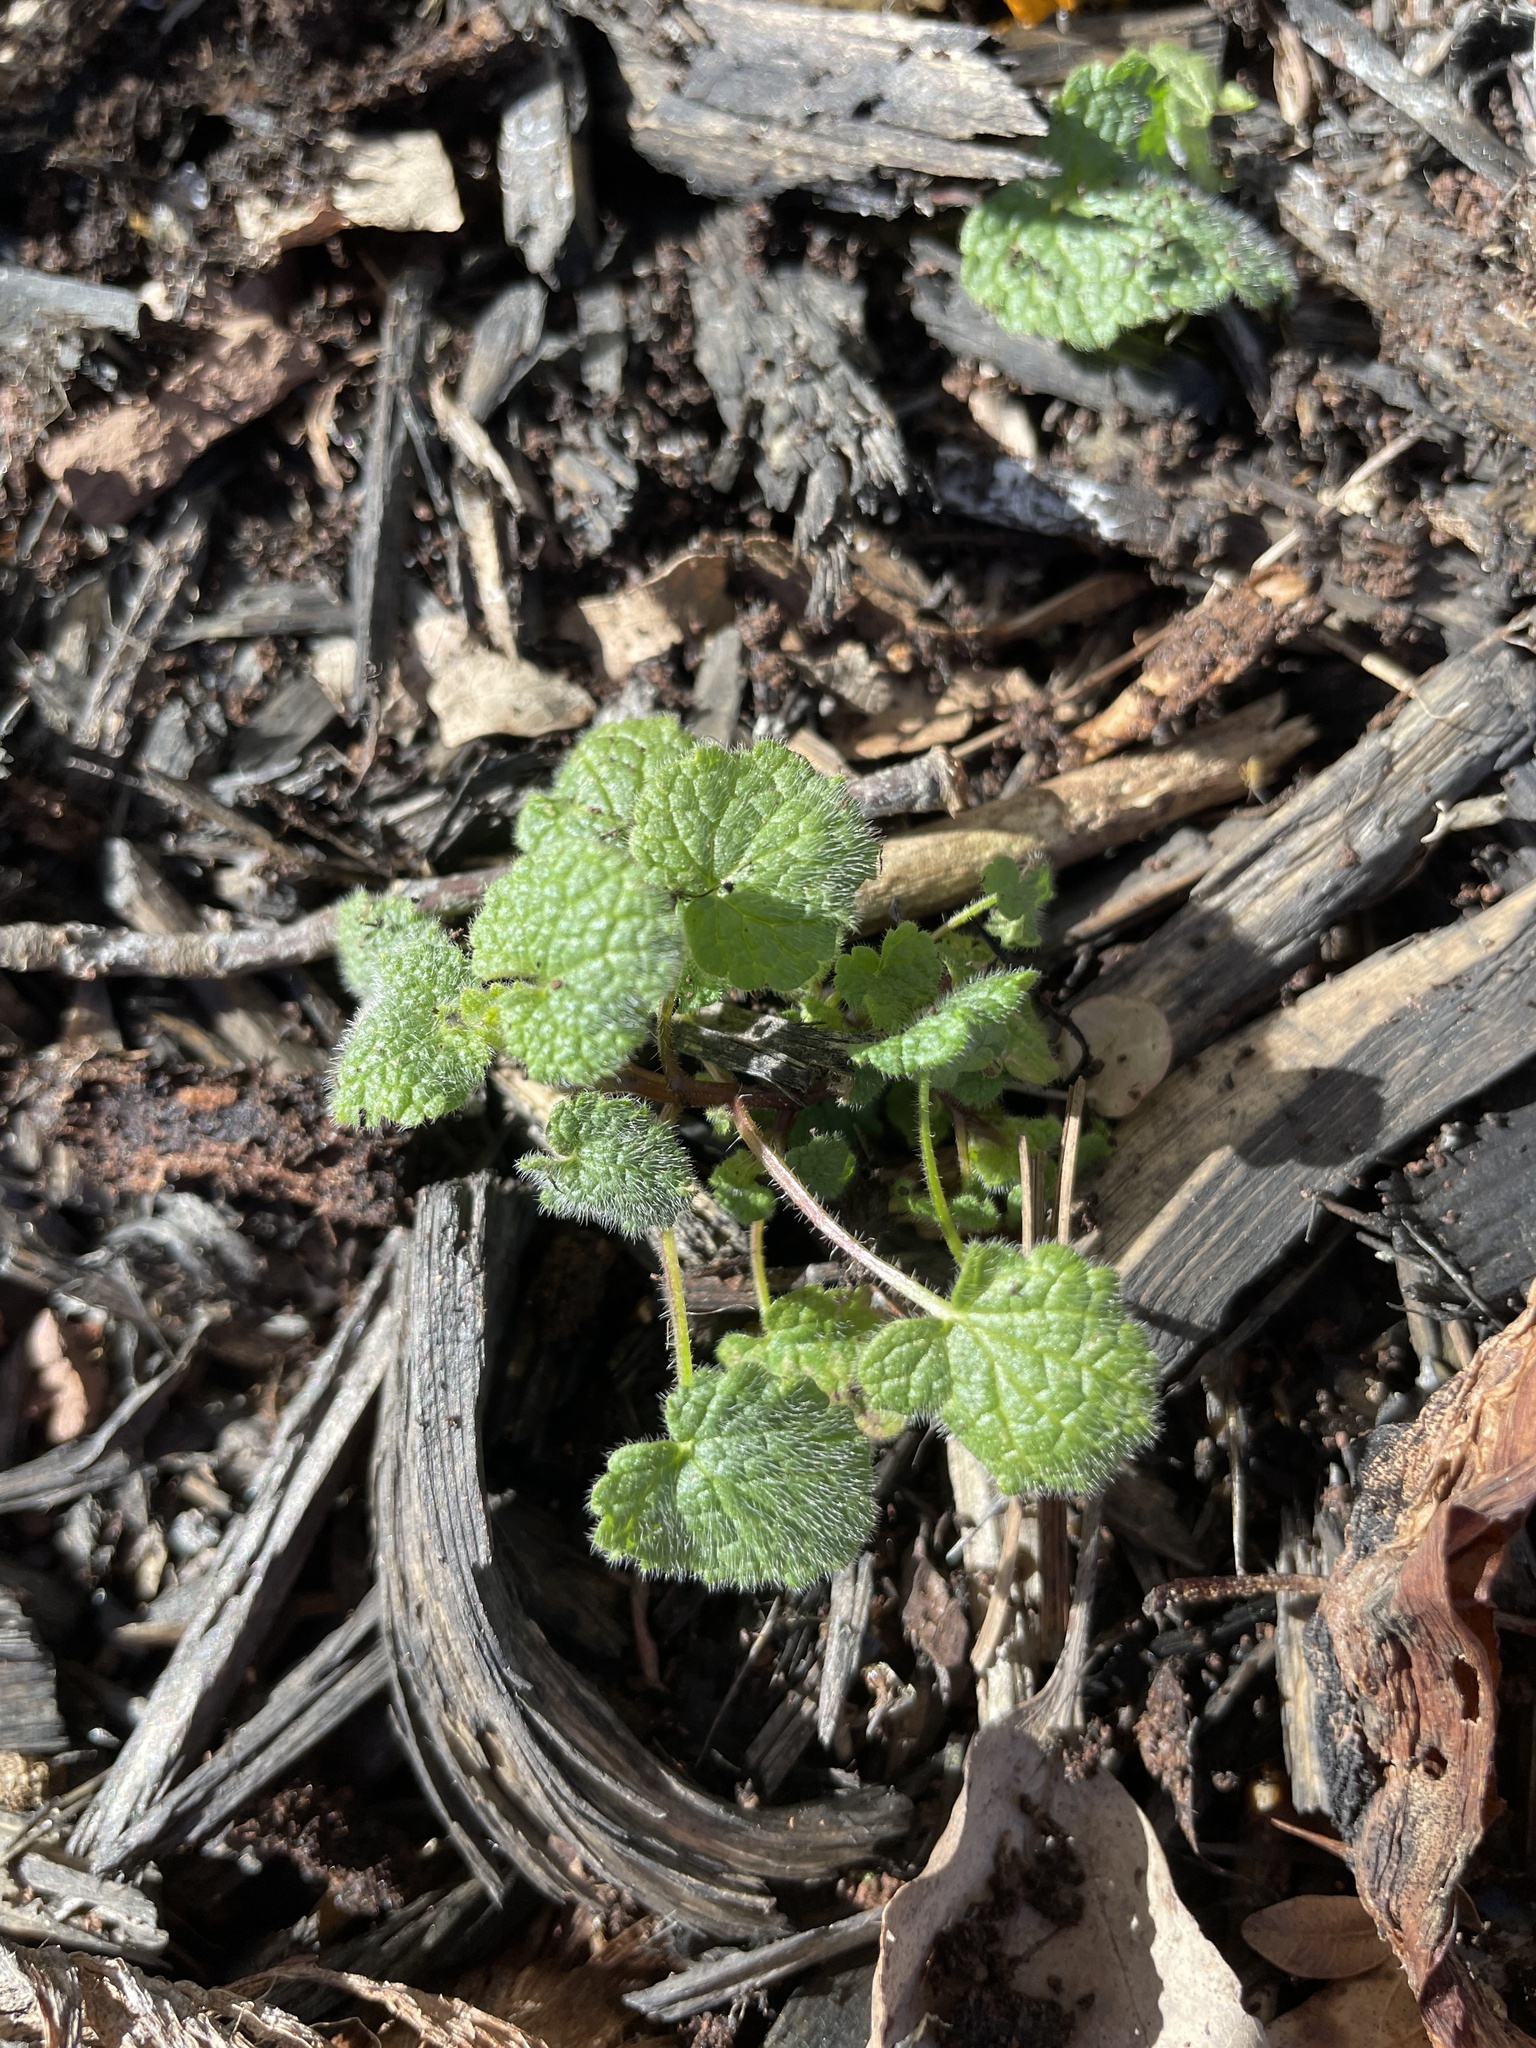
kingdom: Plantae
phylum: Tracheophyta
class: Magnoliopsida
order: Lamiales
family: Lamiaceae
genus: Lamium
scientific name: Lamium purpureum
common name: Red dead-nettle
